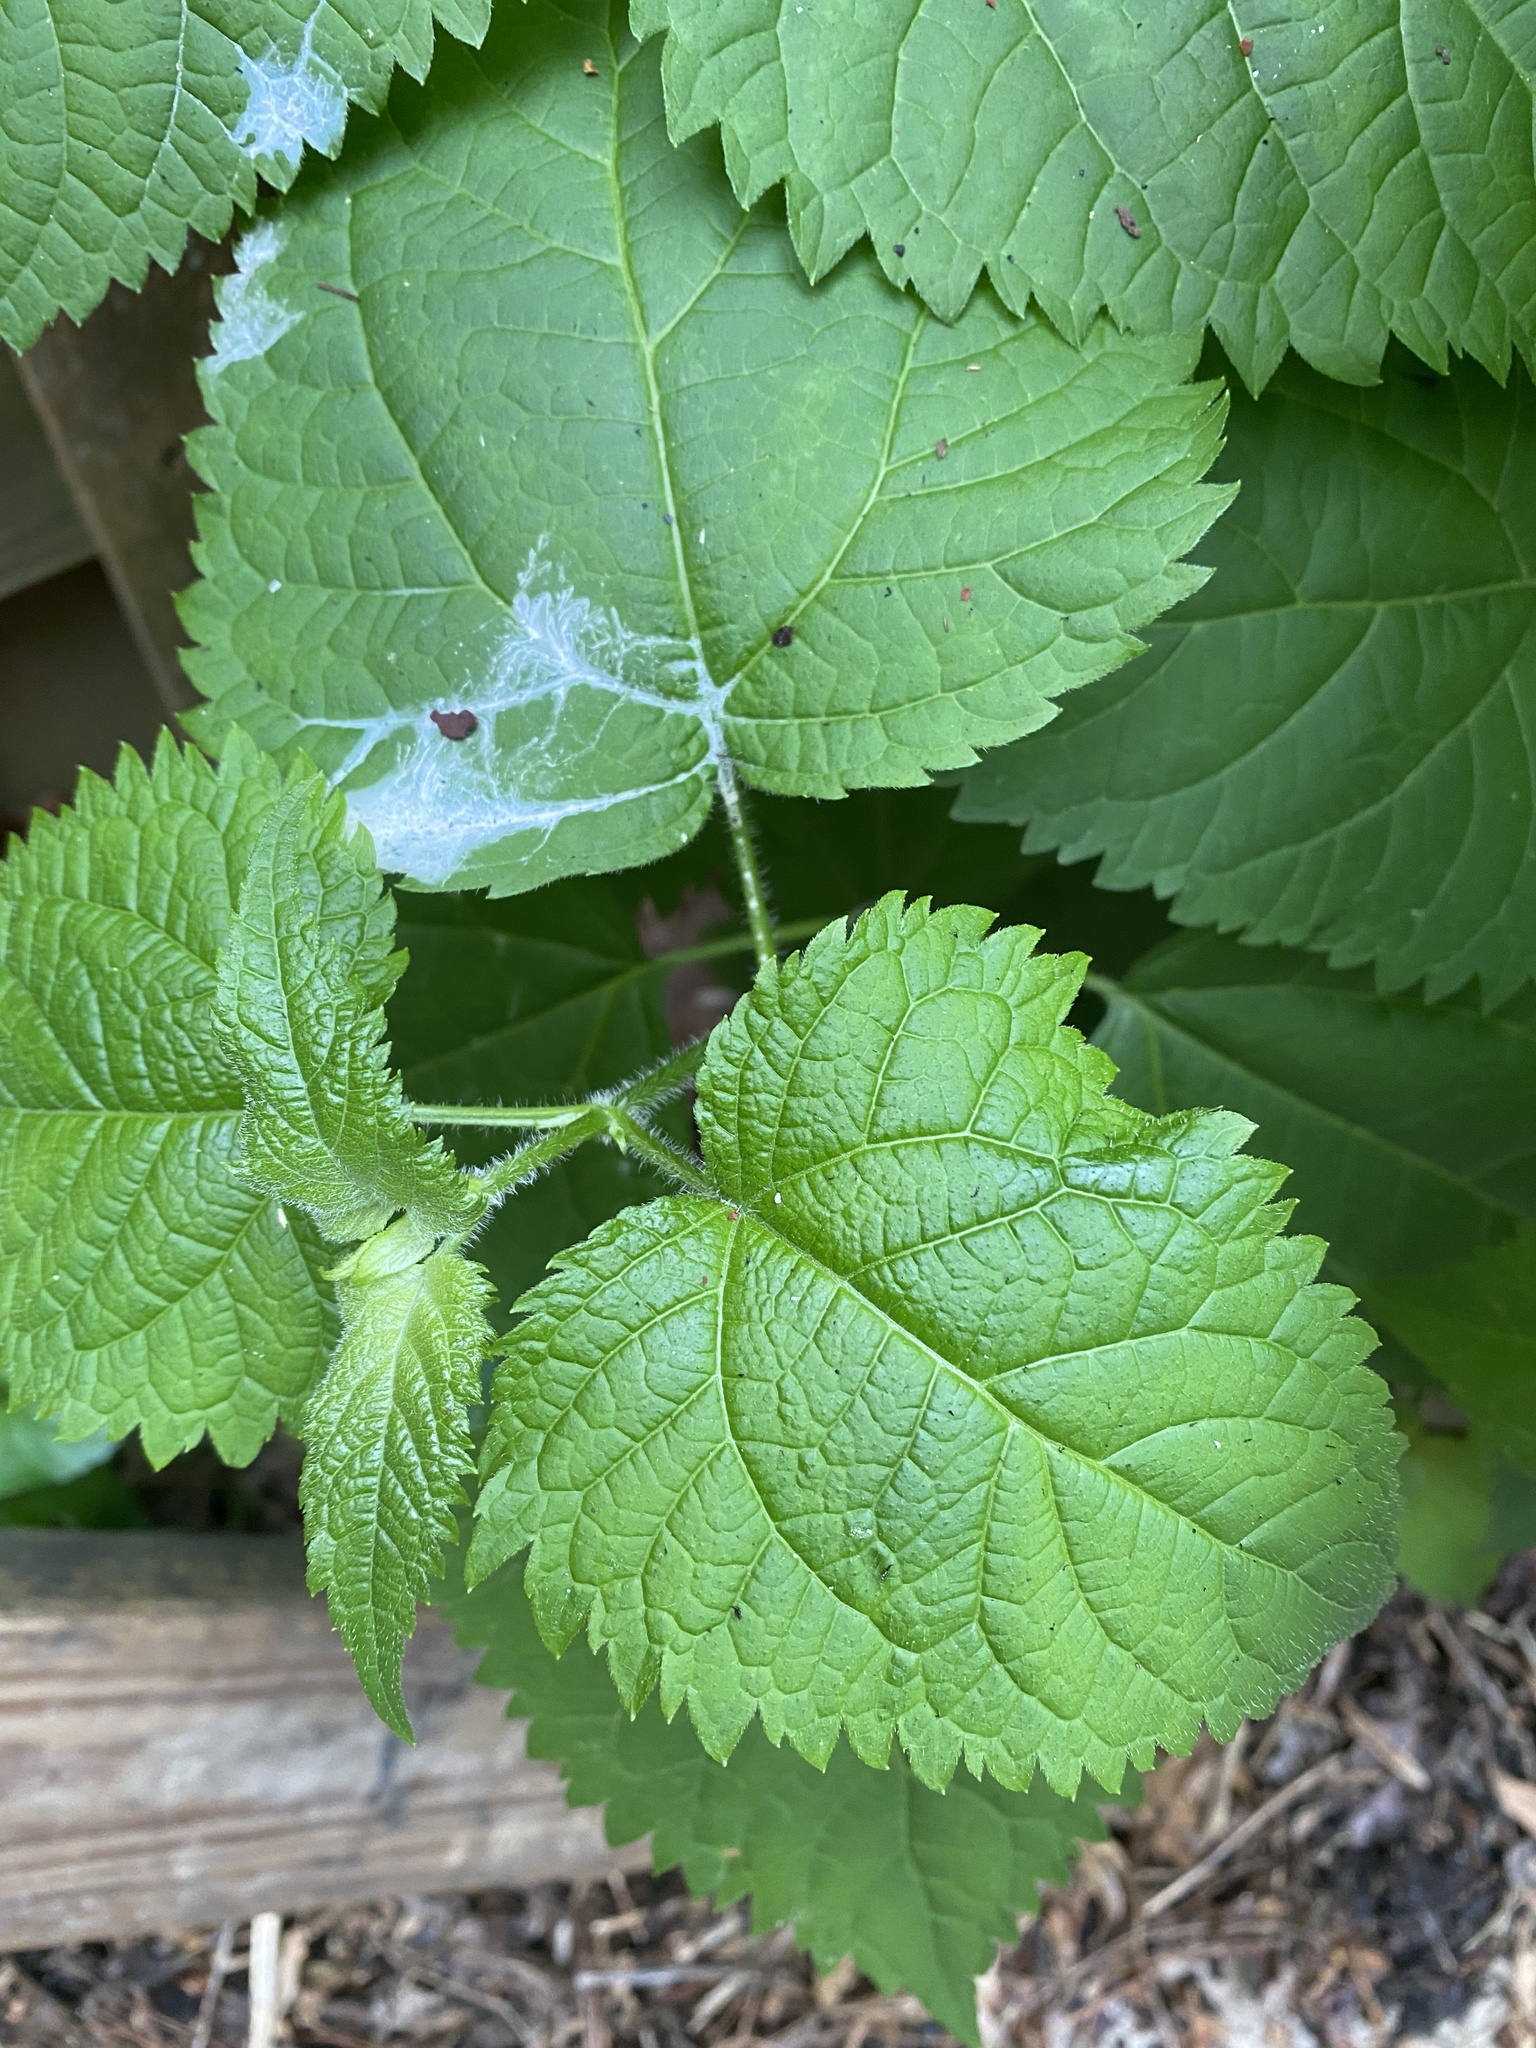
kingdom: Plantae
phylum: Tracheophyta
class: Magnoliopsida
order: Rosales
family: Urticaceae
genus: Laportea
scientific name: Laportea canadensis
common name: Canada nettle
